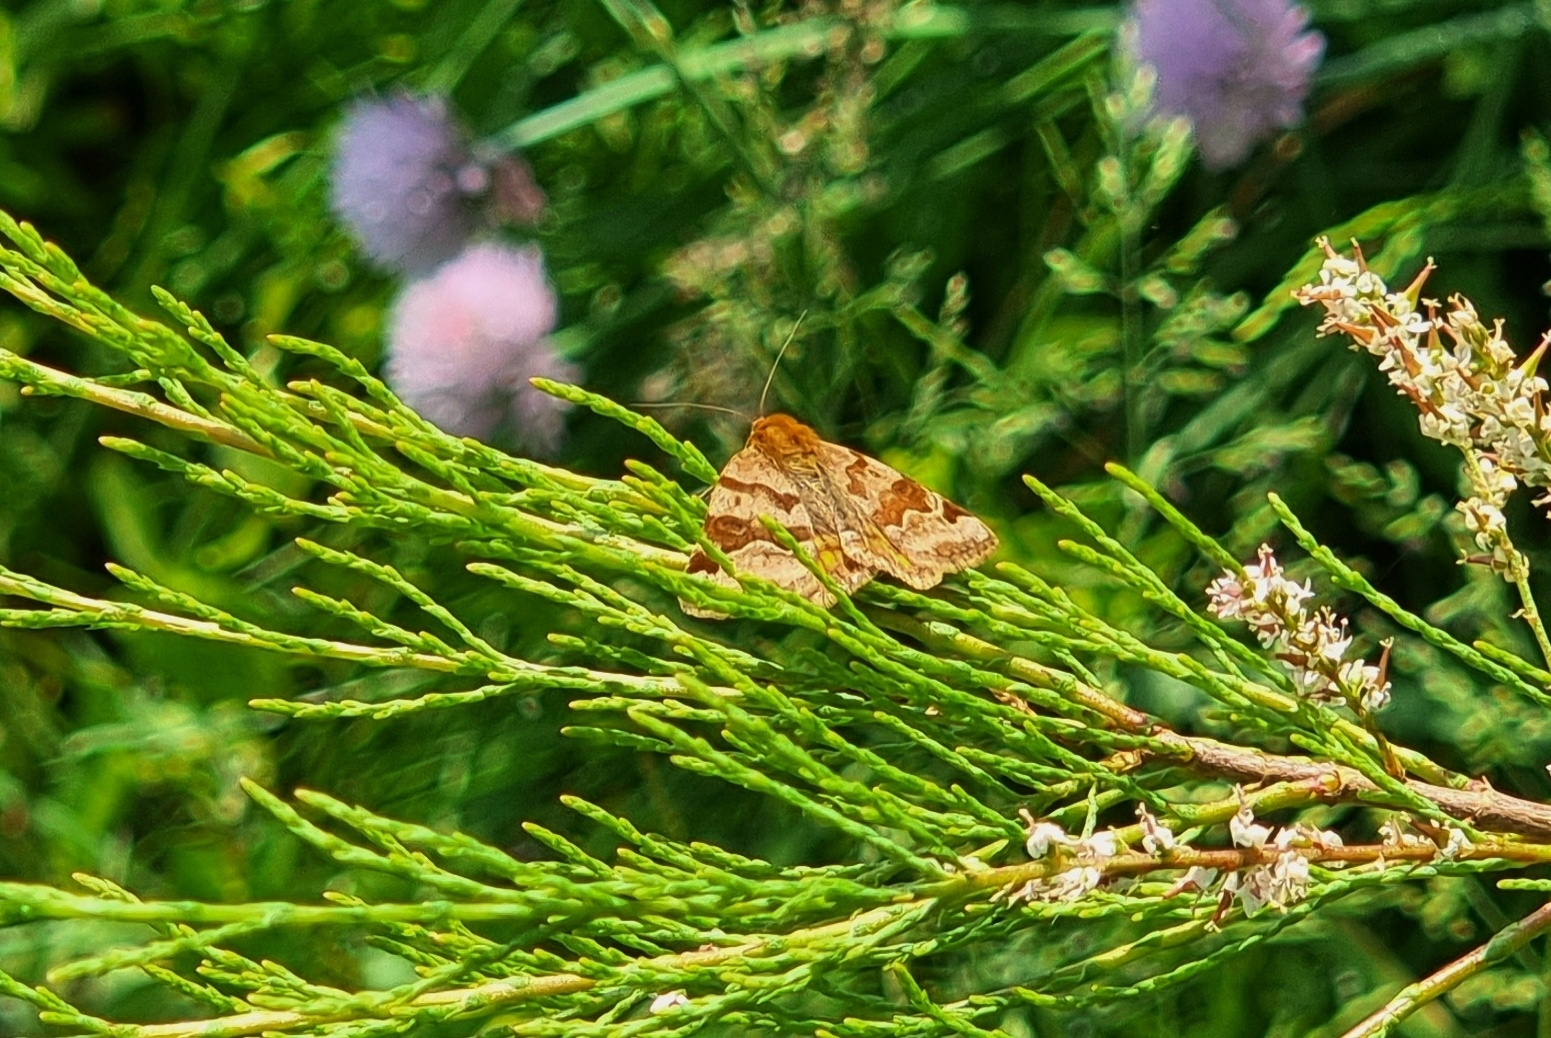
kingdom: Animalia
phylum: Arthropoda
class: Insecta
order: Lepidoptera
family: Erebidae
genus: Euclidia
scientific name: Euclidia glyphica
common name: Burnet companion
